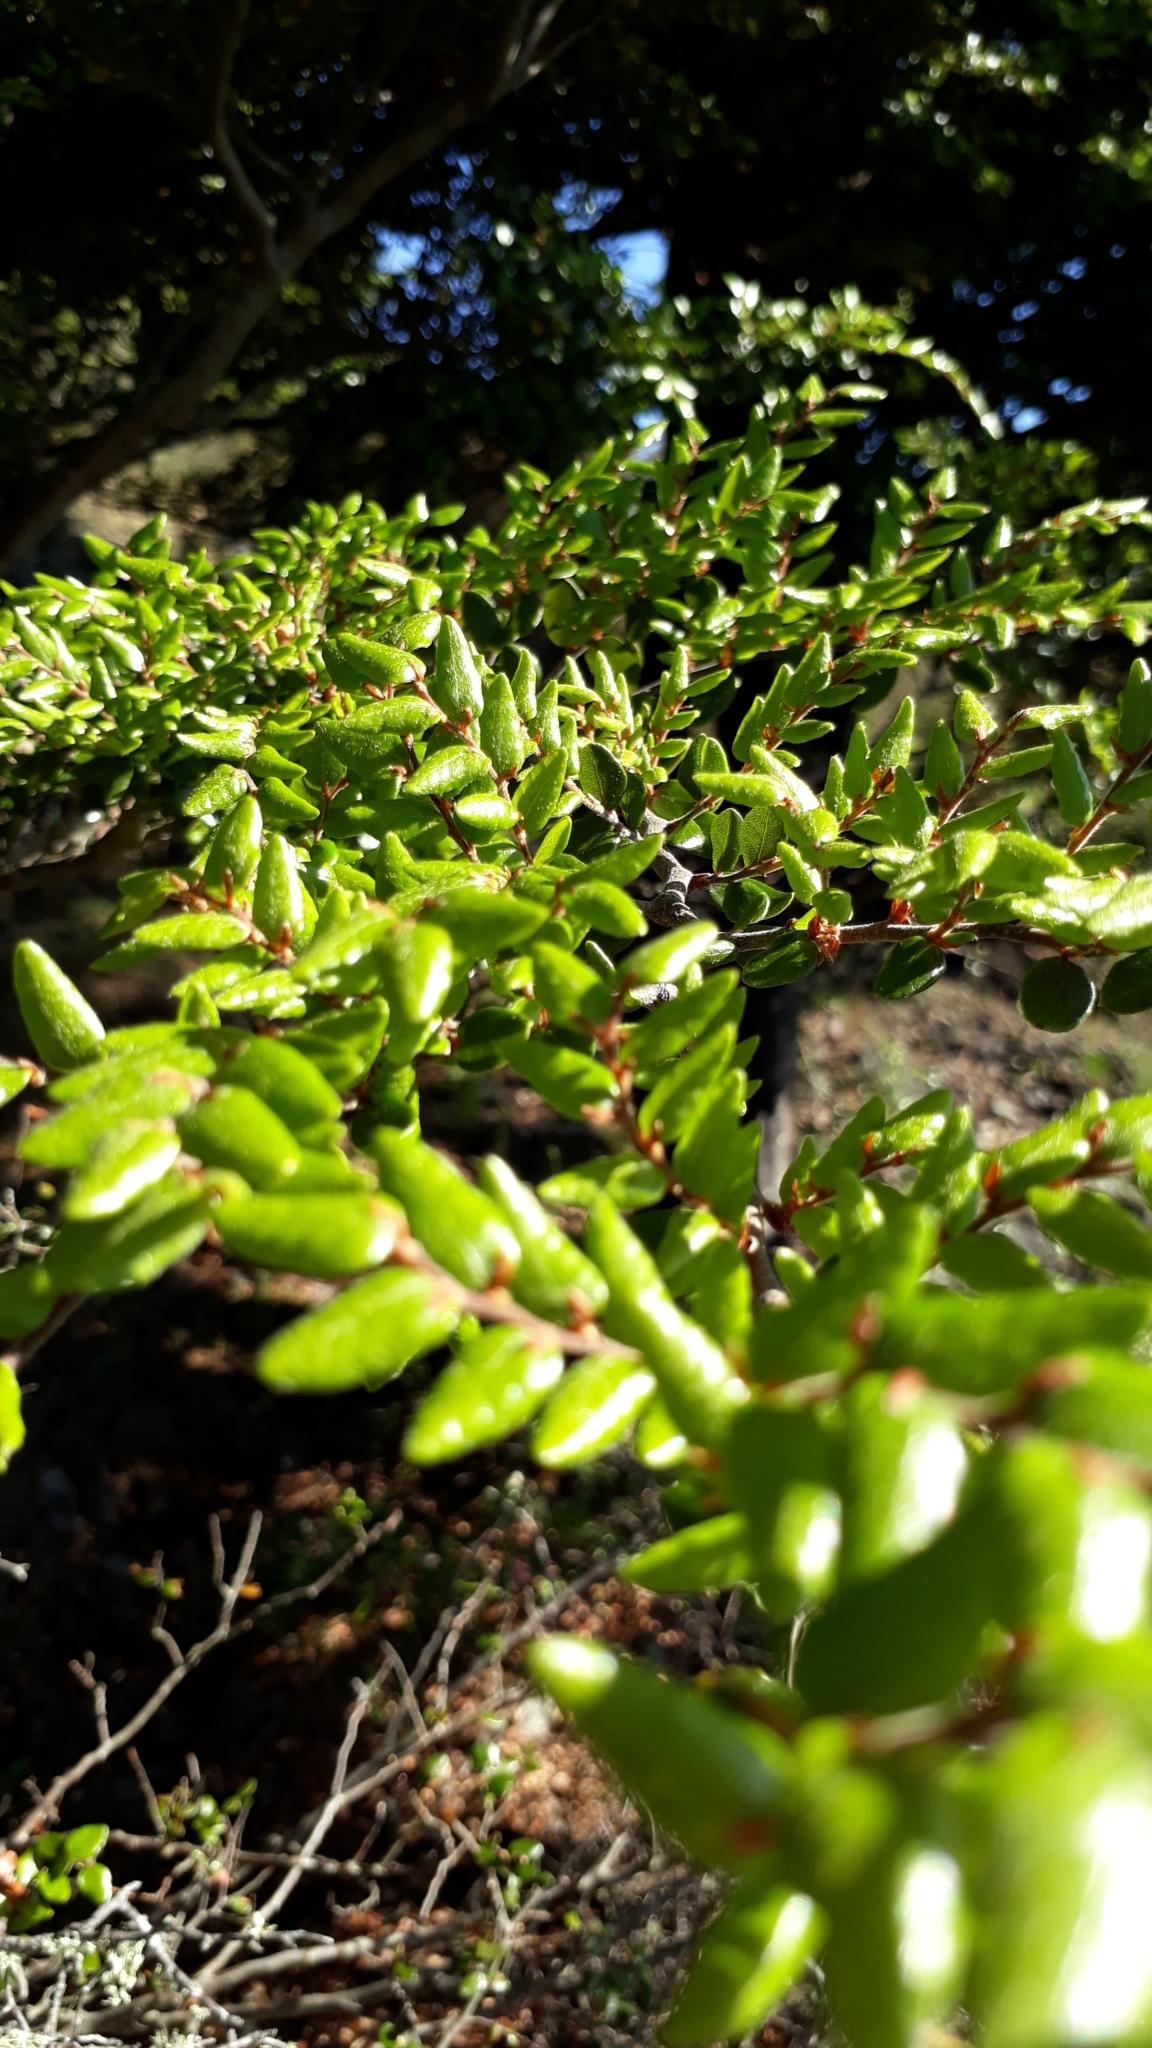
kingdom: Plantae
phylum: Tracheophyta
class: Magnoliopsida
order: Fagales
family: Nothofagaceae
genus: Nothofagus
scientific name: Nothofagus cliffortioides
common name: Mountain beech
